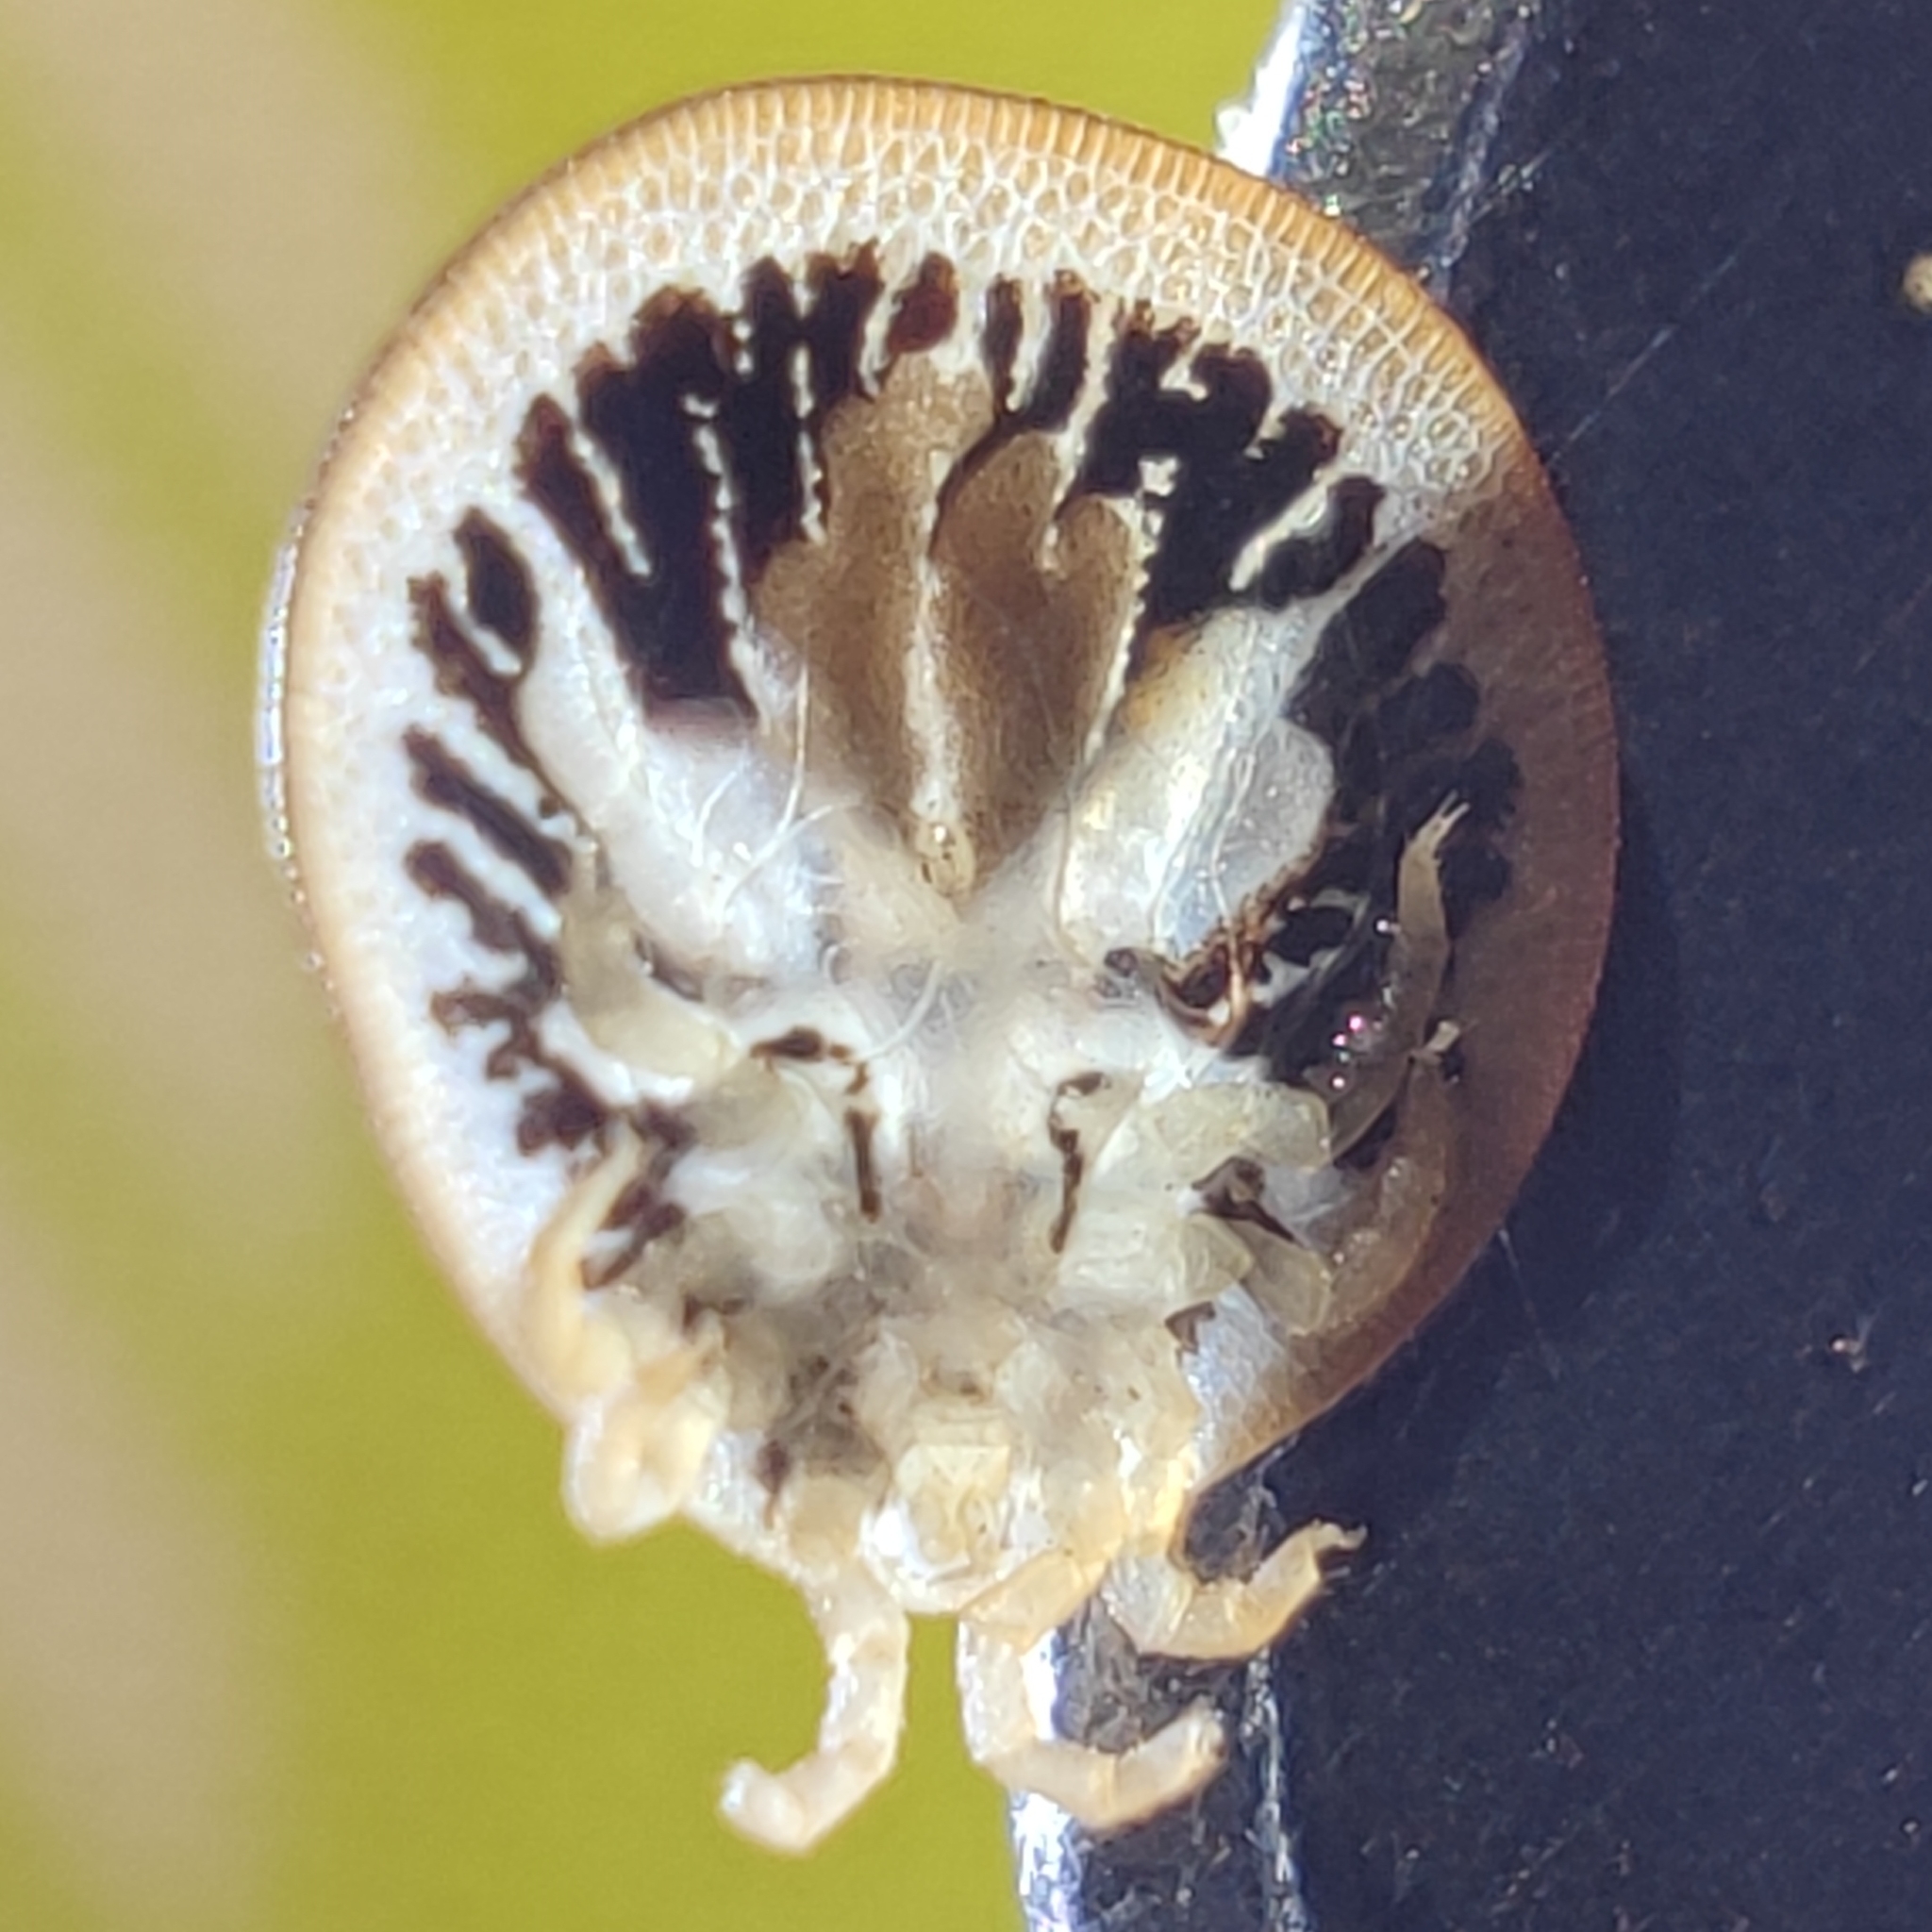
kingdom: Animalia
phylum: Arthropoda
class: Arachnida
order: Ixodida
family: Argasidae
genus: Argas
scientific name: Argas vespertilionis
